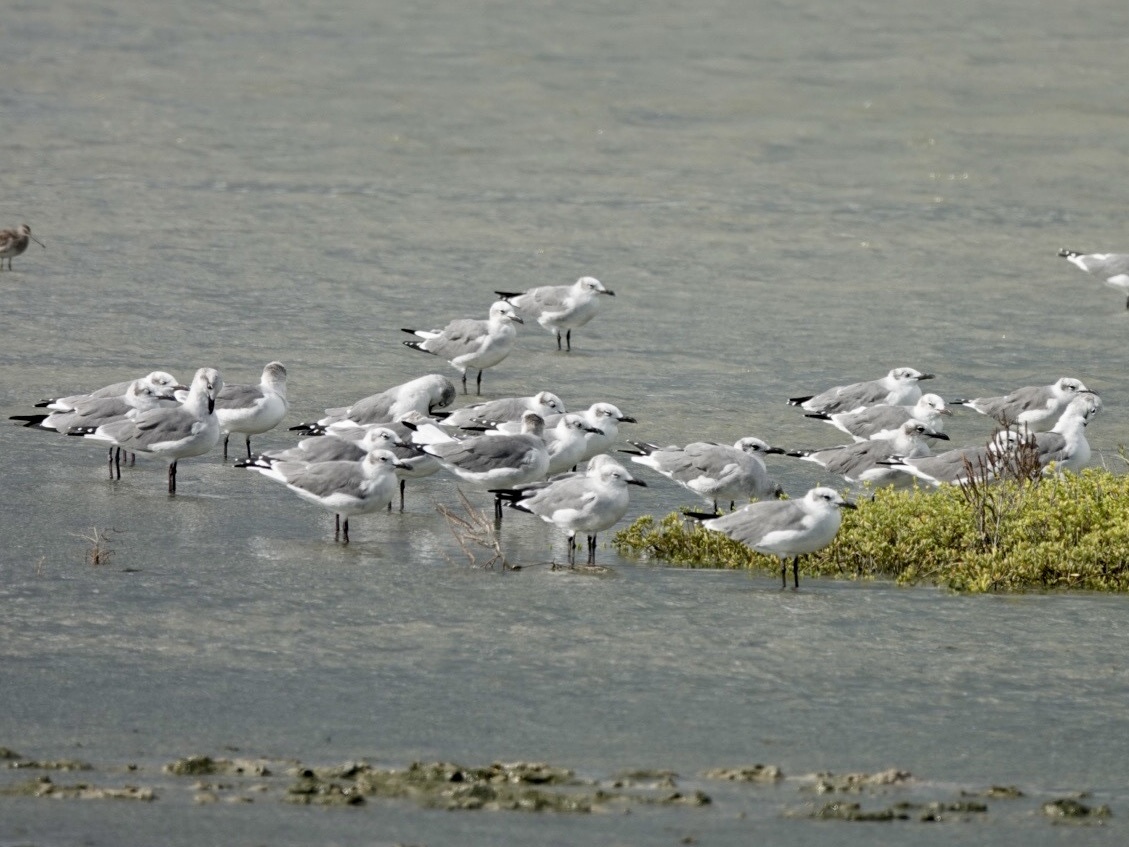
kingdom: Animalia
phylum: Chordata
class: Aves
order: Charadriiformes
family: Laridae
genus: Leucophaeus
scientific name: Leucophaeus atricilla
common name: Laughing gull
